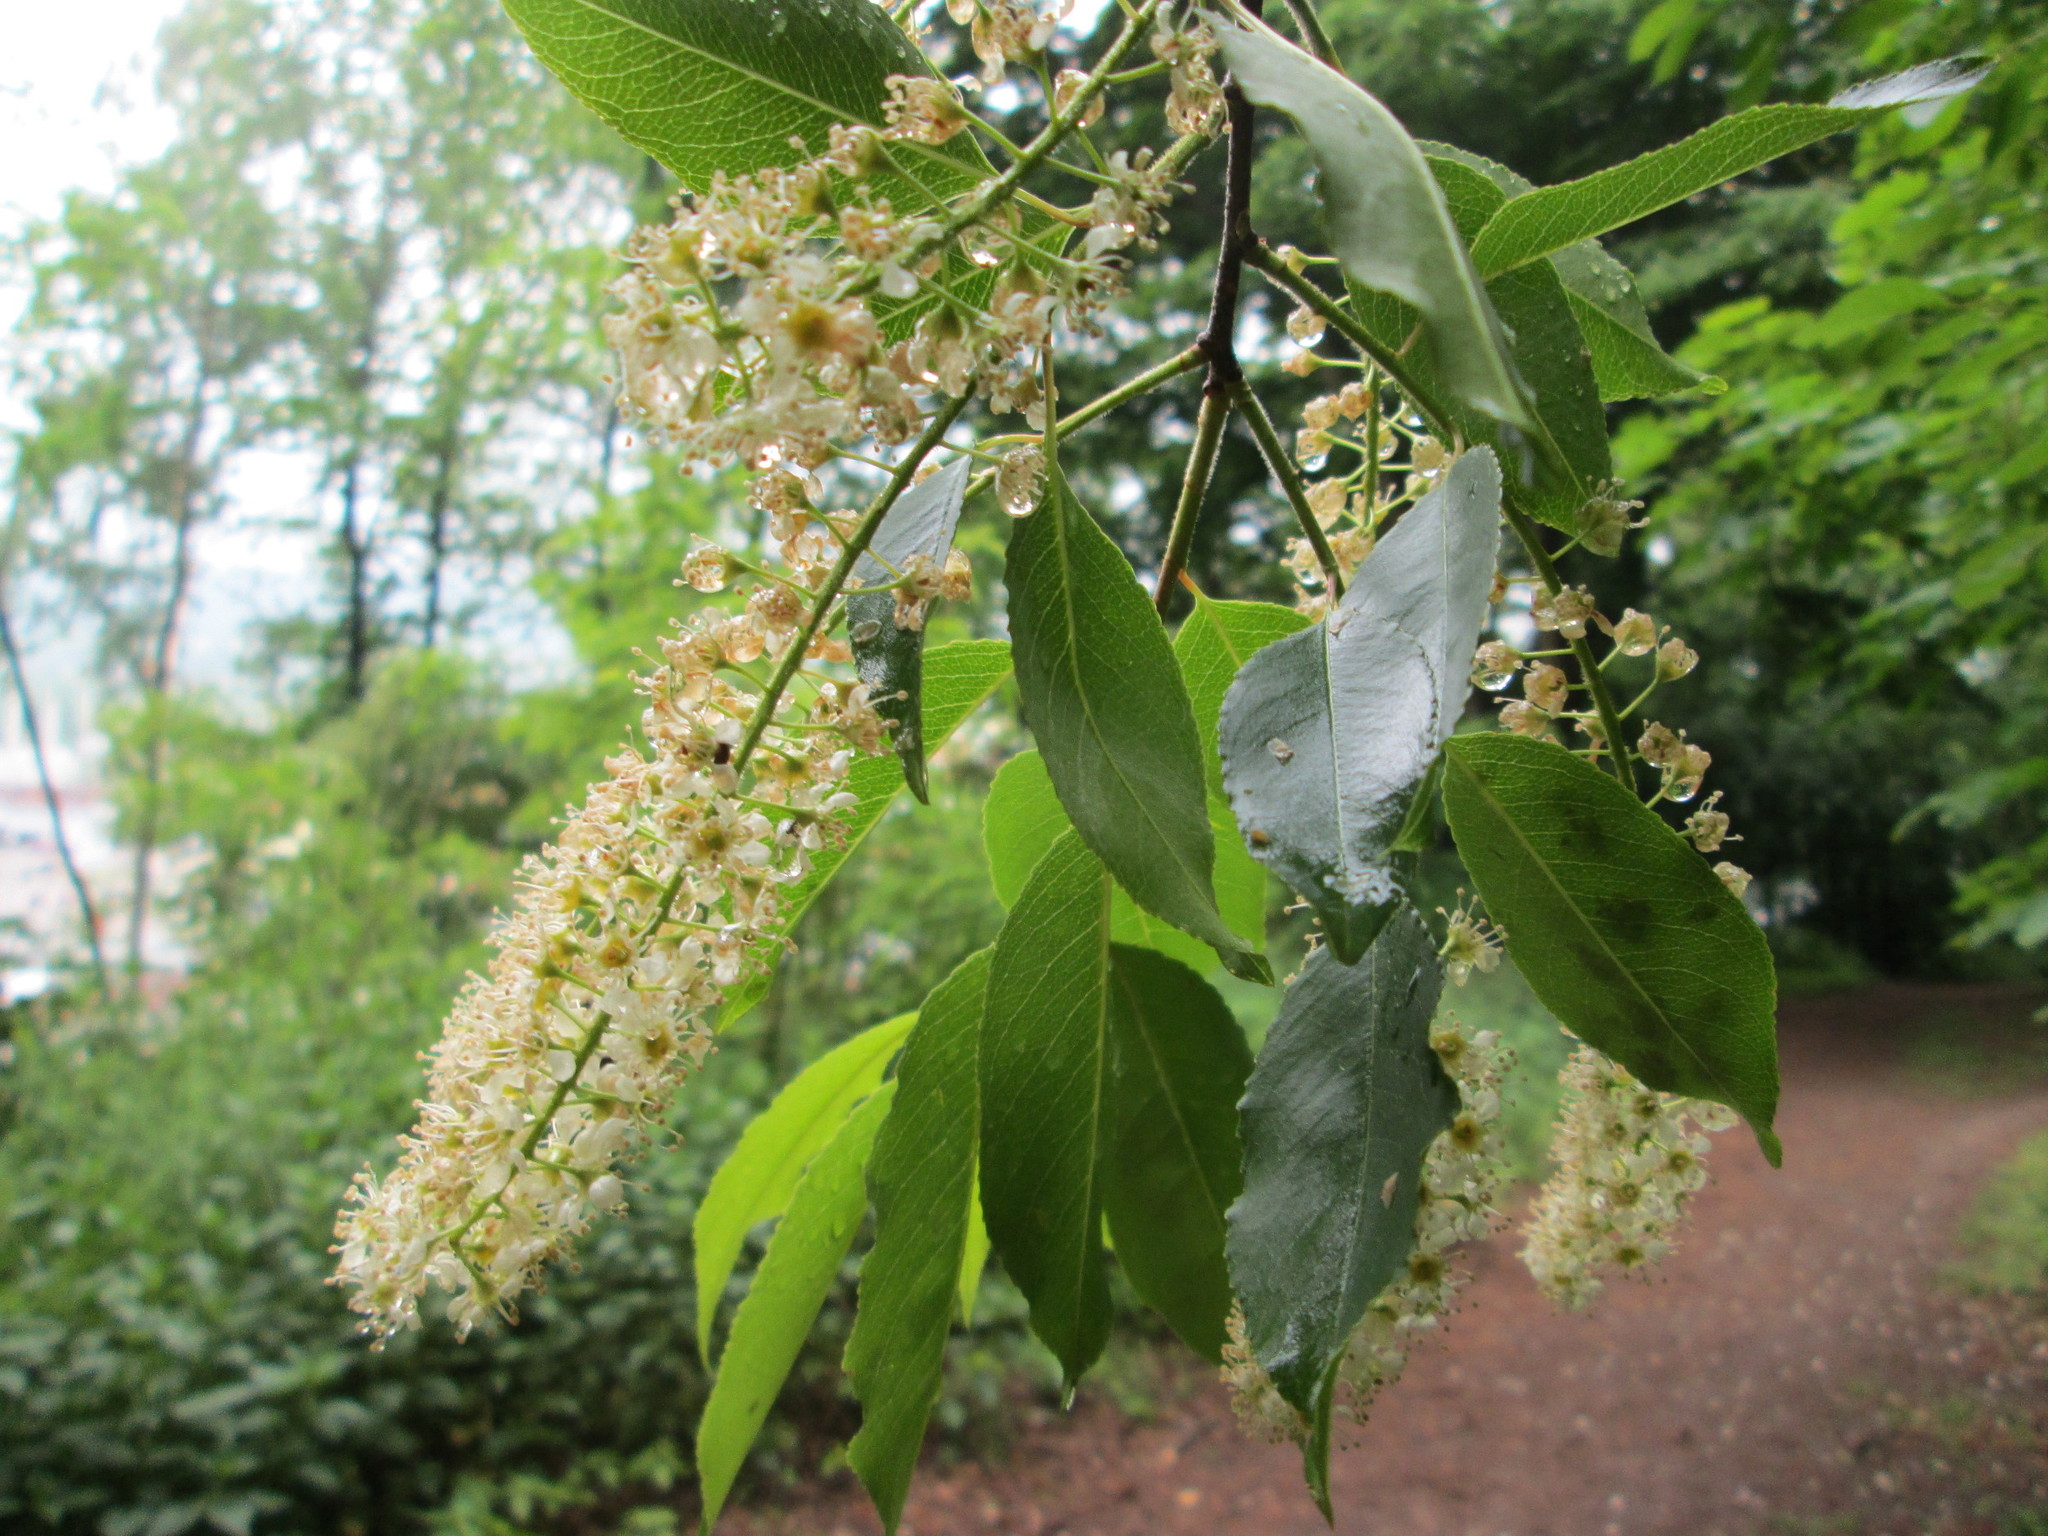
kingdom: Plantae
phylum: Tracheophyta
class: Magnoliopsida
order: Rosales
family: Rosaceae
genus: Prunus
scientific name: Prunus serotina
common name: Black cherry
